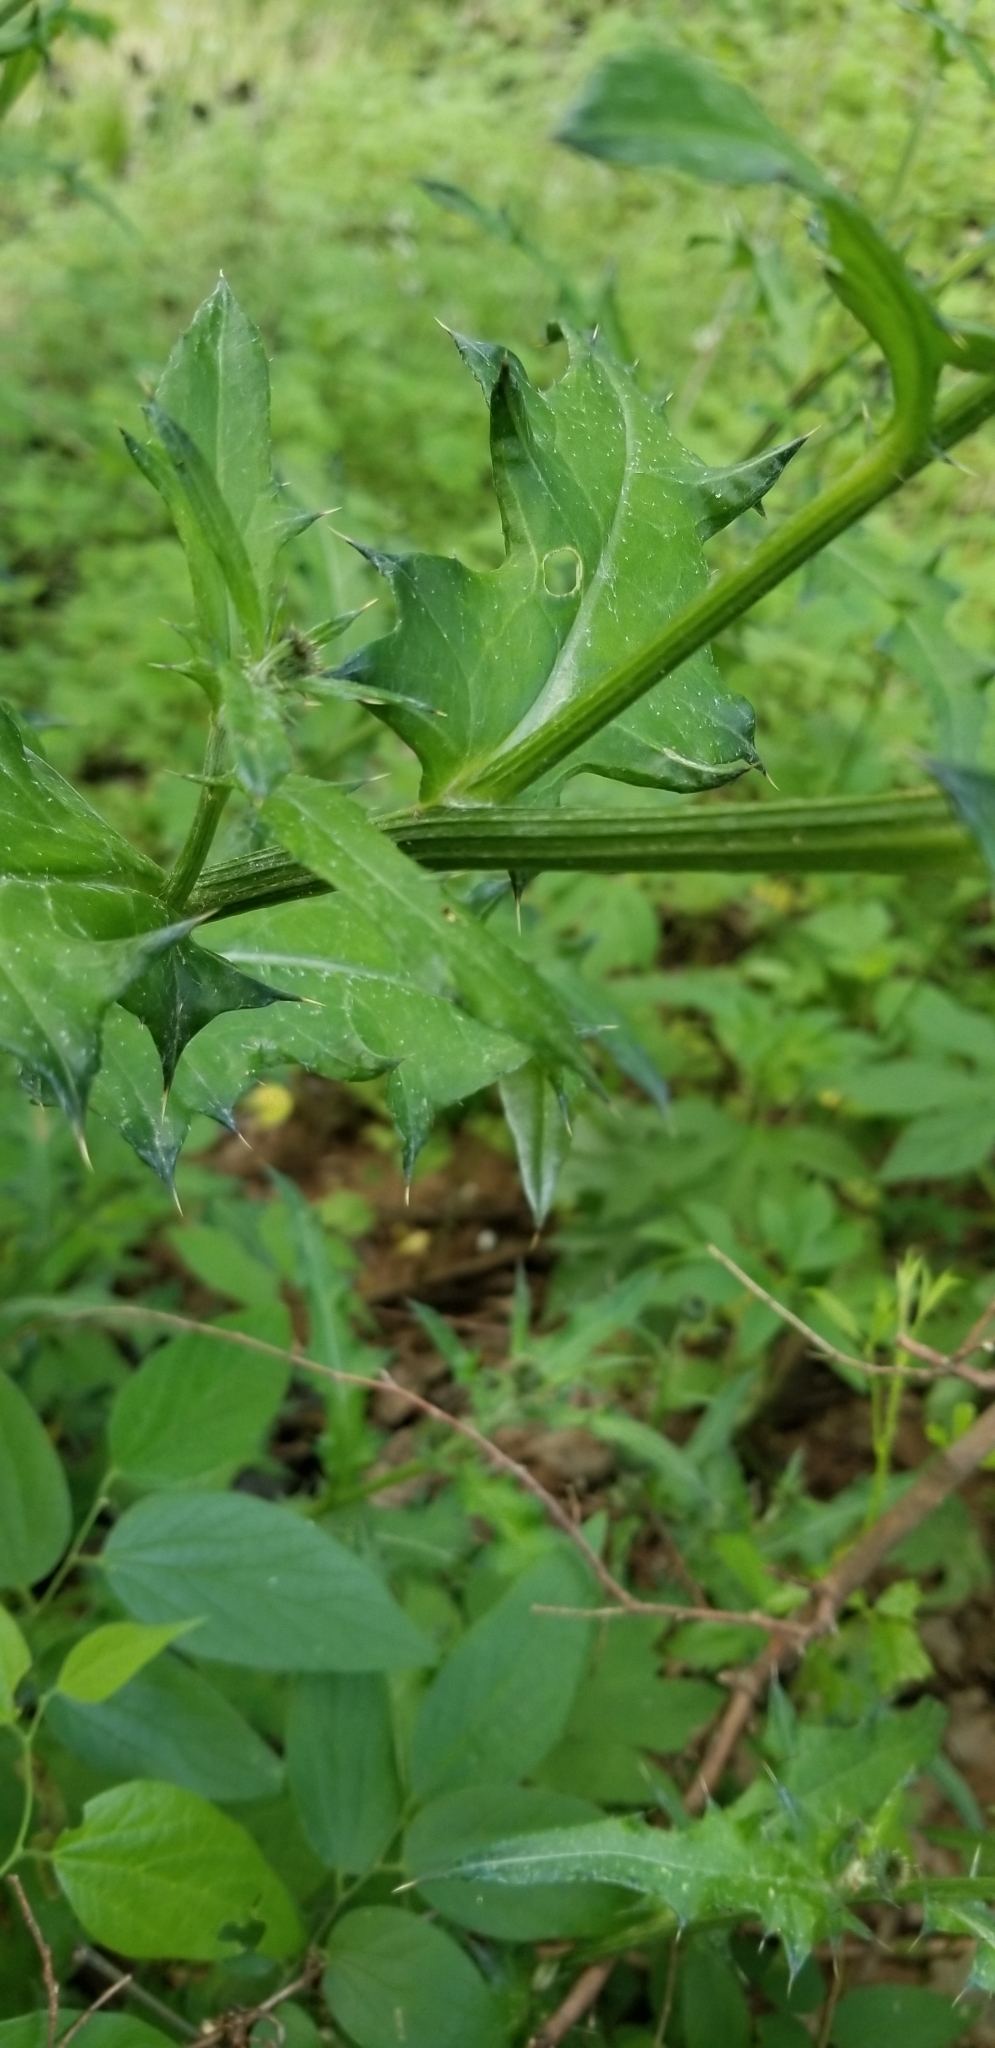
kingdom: Plantae
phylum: Tracheophyta
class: Magnoliopsida
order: Asterales
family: Asteraceae
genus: Cirsium
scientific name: Cirsium texanum
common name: Texas purple thistle
